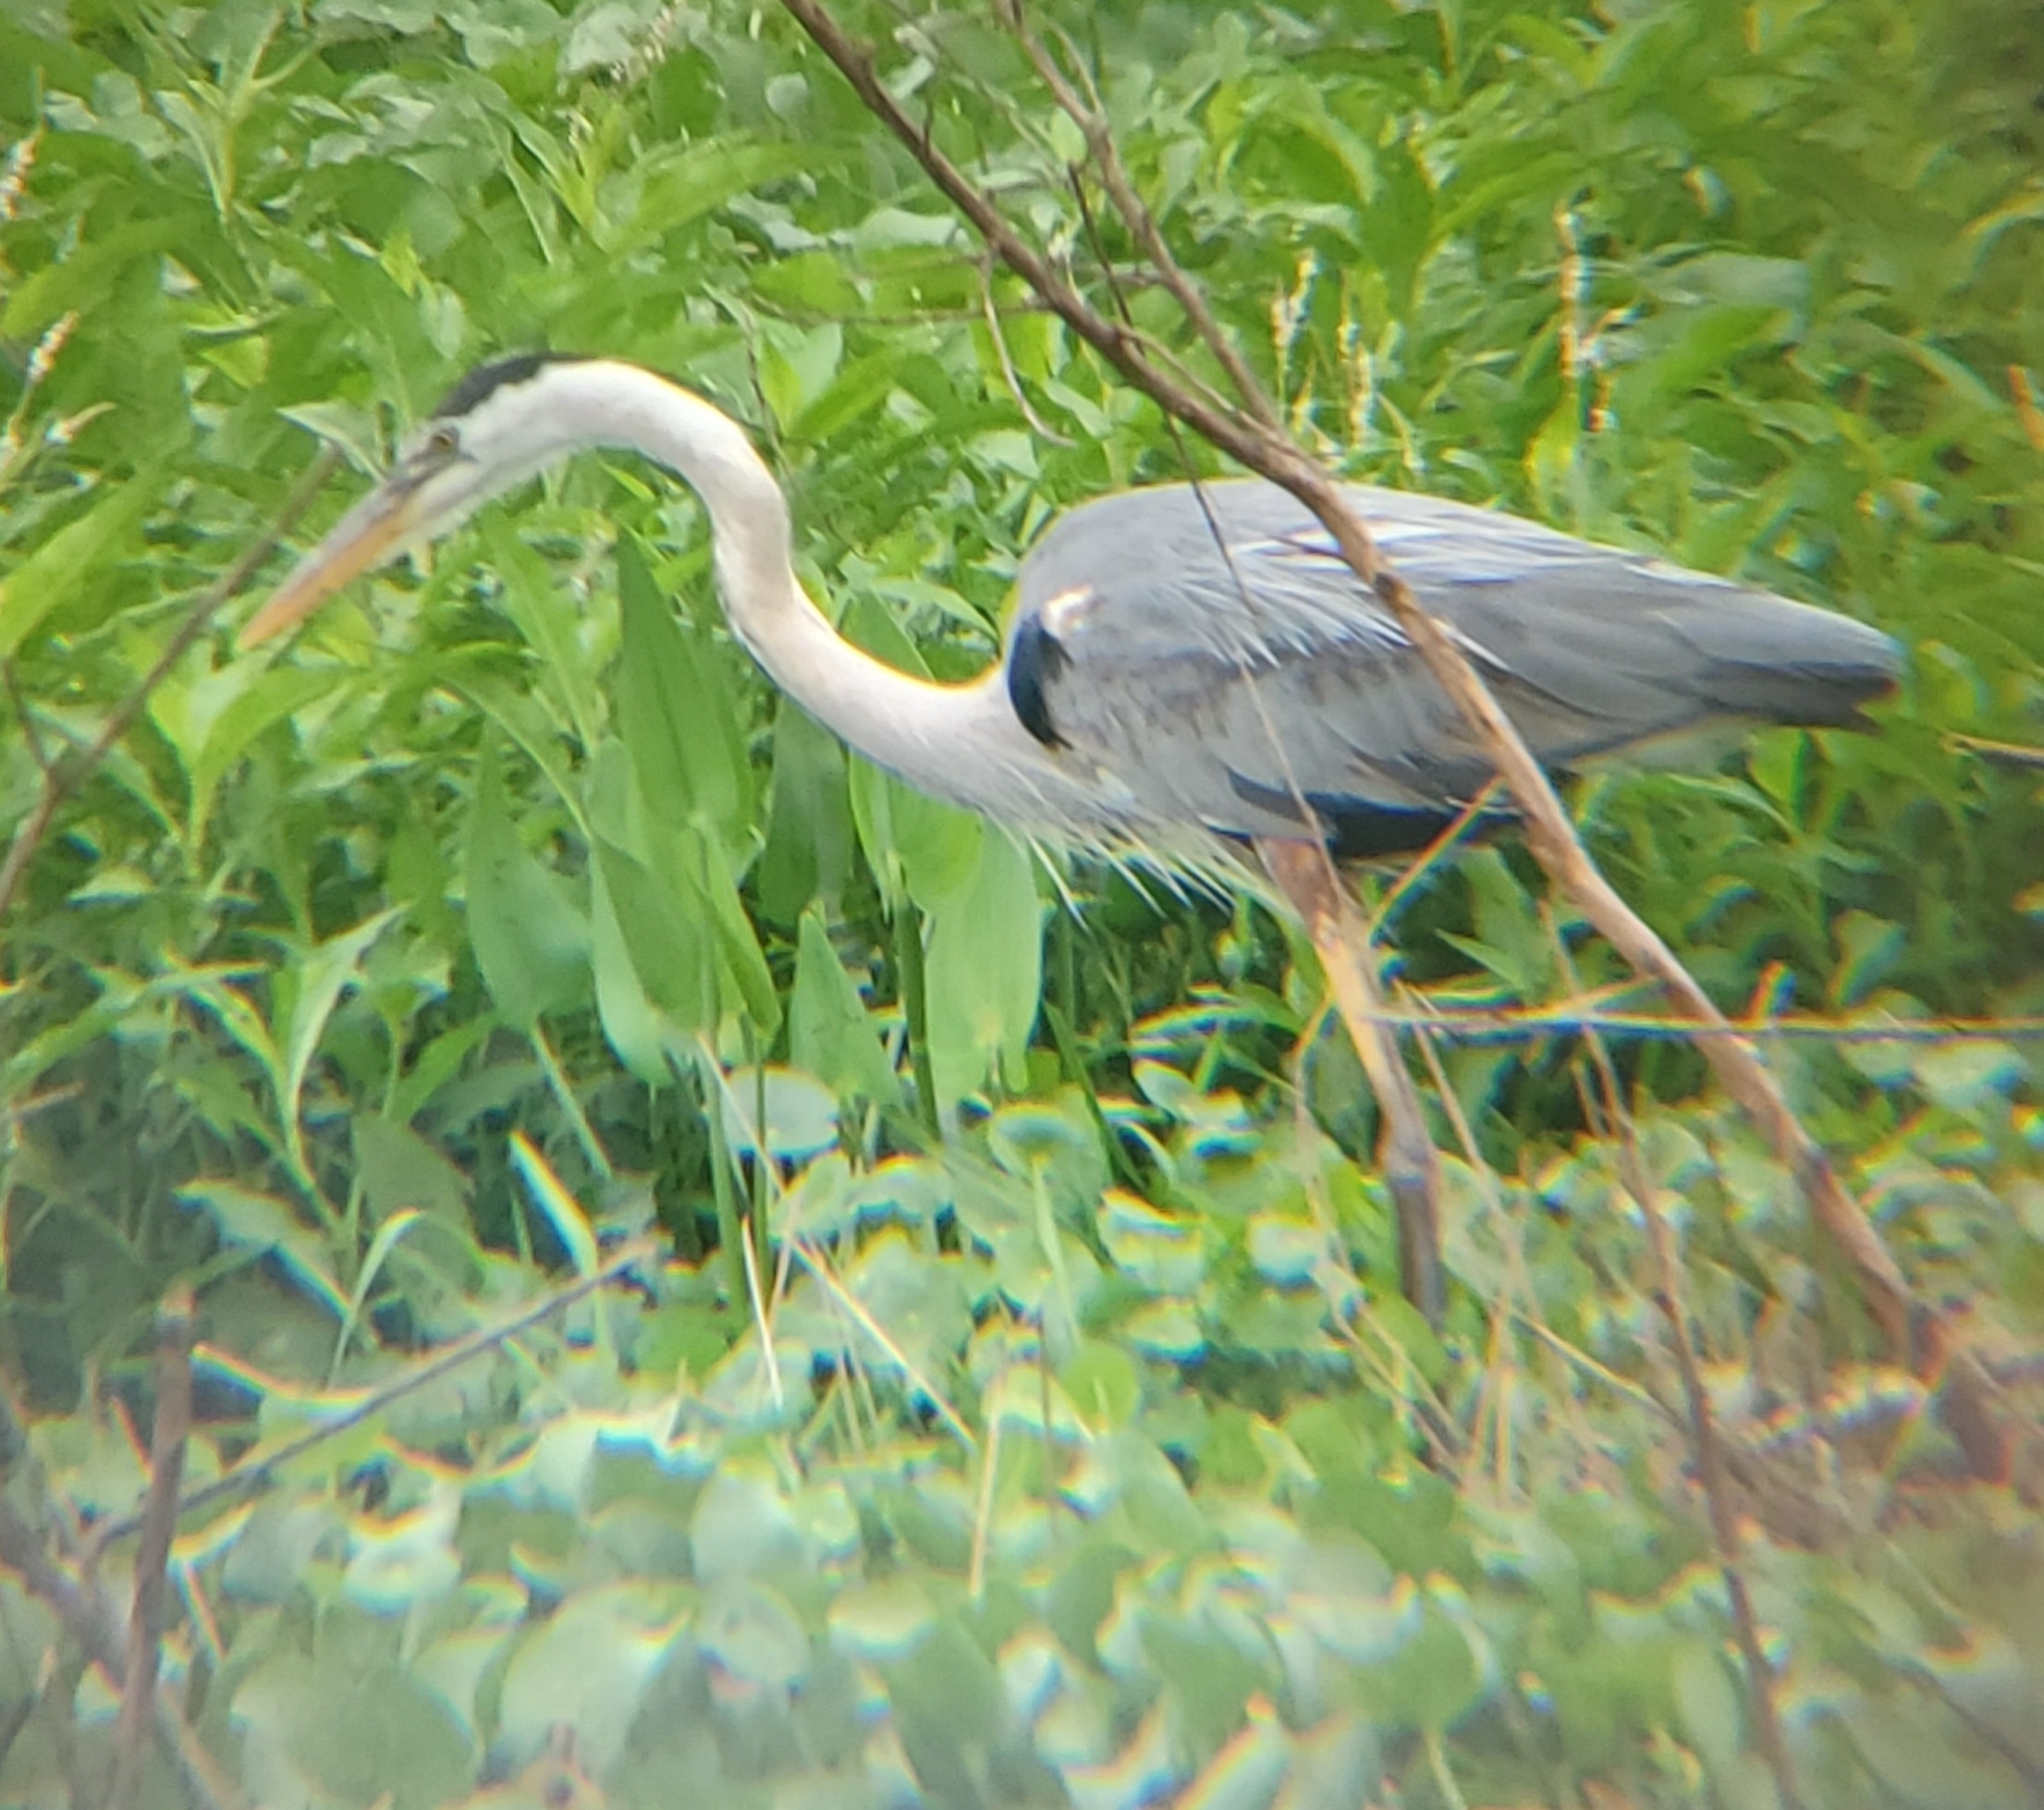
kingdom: Animalia
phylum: Chordata
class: Aves
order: Pelecaniformes
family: Ardeidae
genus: Ardea
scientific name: Ardea herodias
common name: Great blue heron
